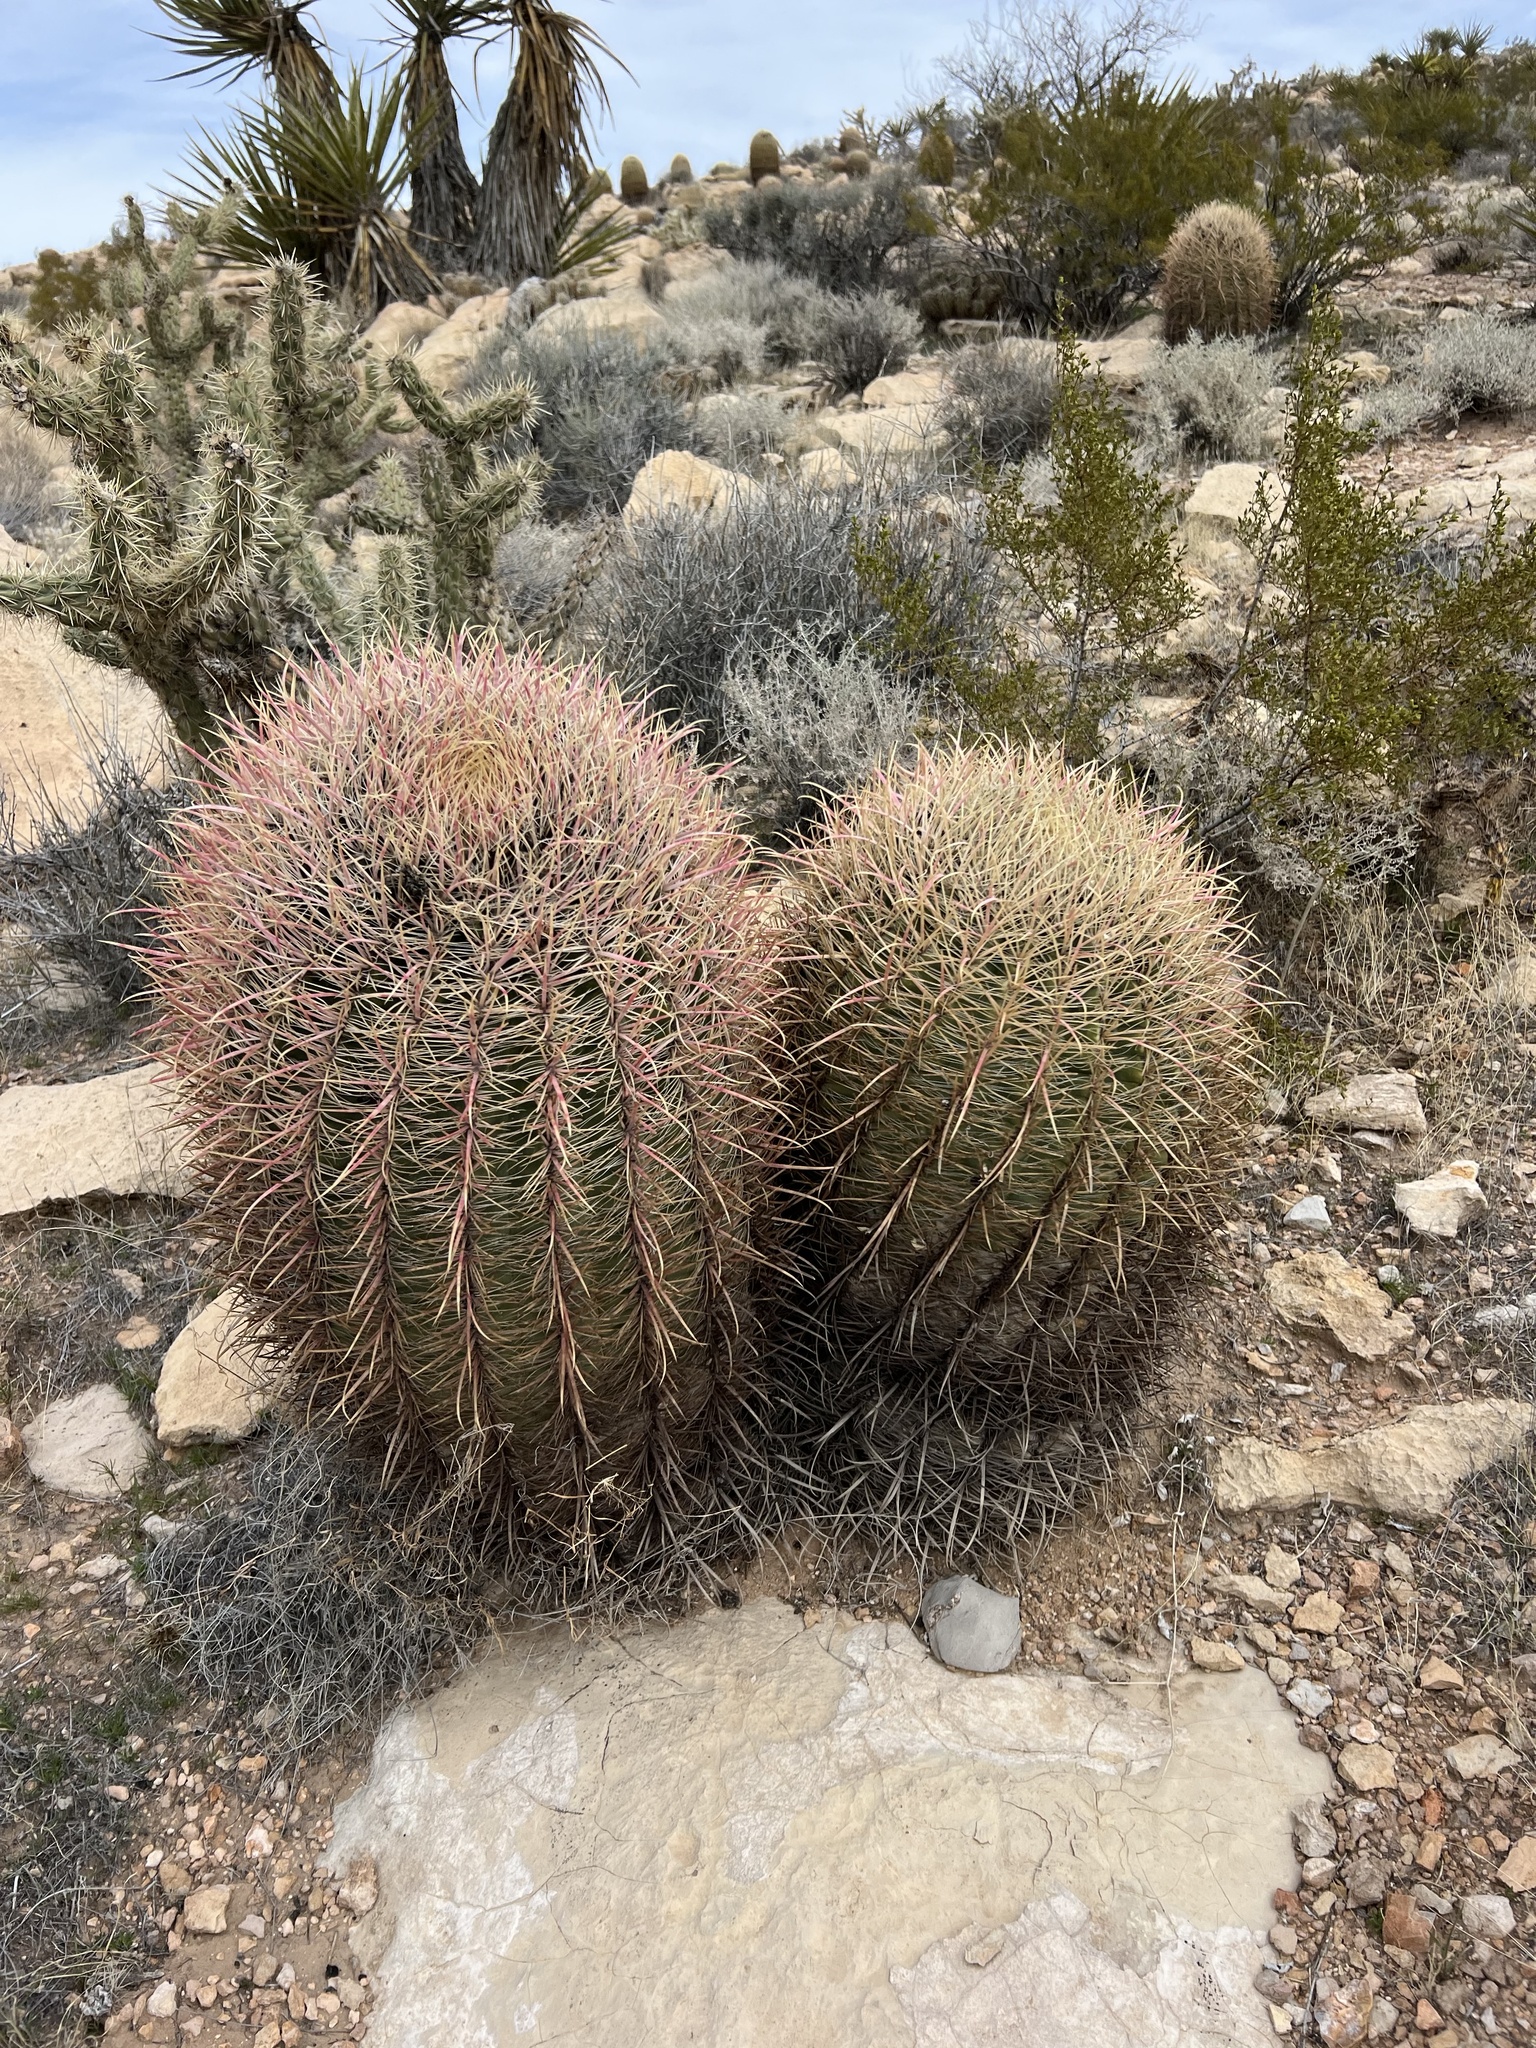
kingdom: Plantae
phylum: Tracheophyta
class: Magnoliopsida
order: Caryophyllales
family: Cactaceae
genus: Ferocactus
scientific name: Ferocactus cylindraceus
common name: California barrel cactus
